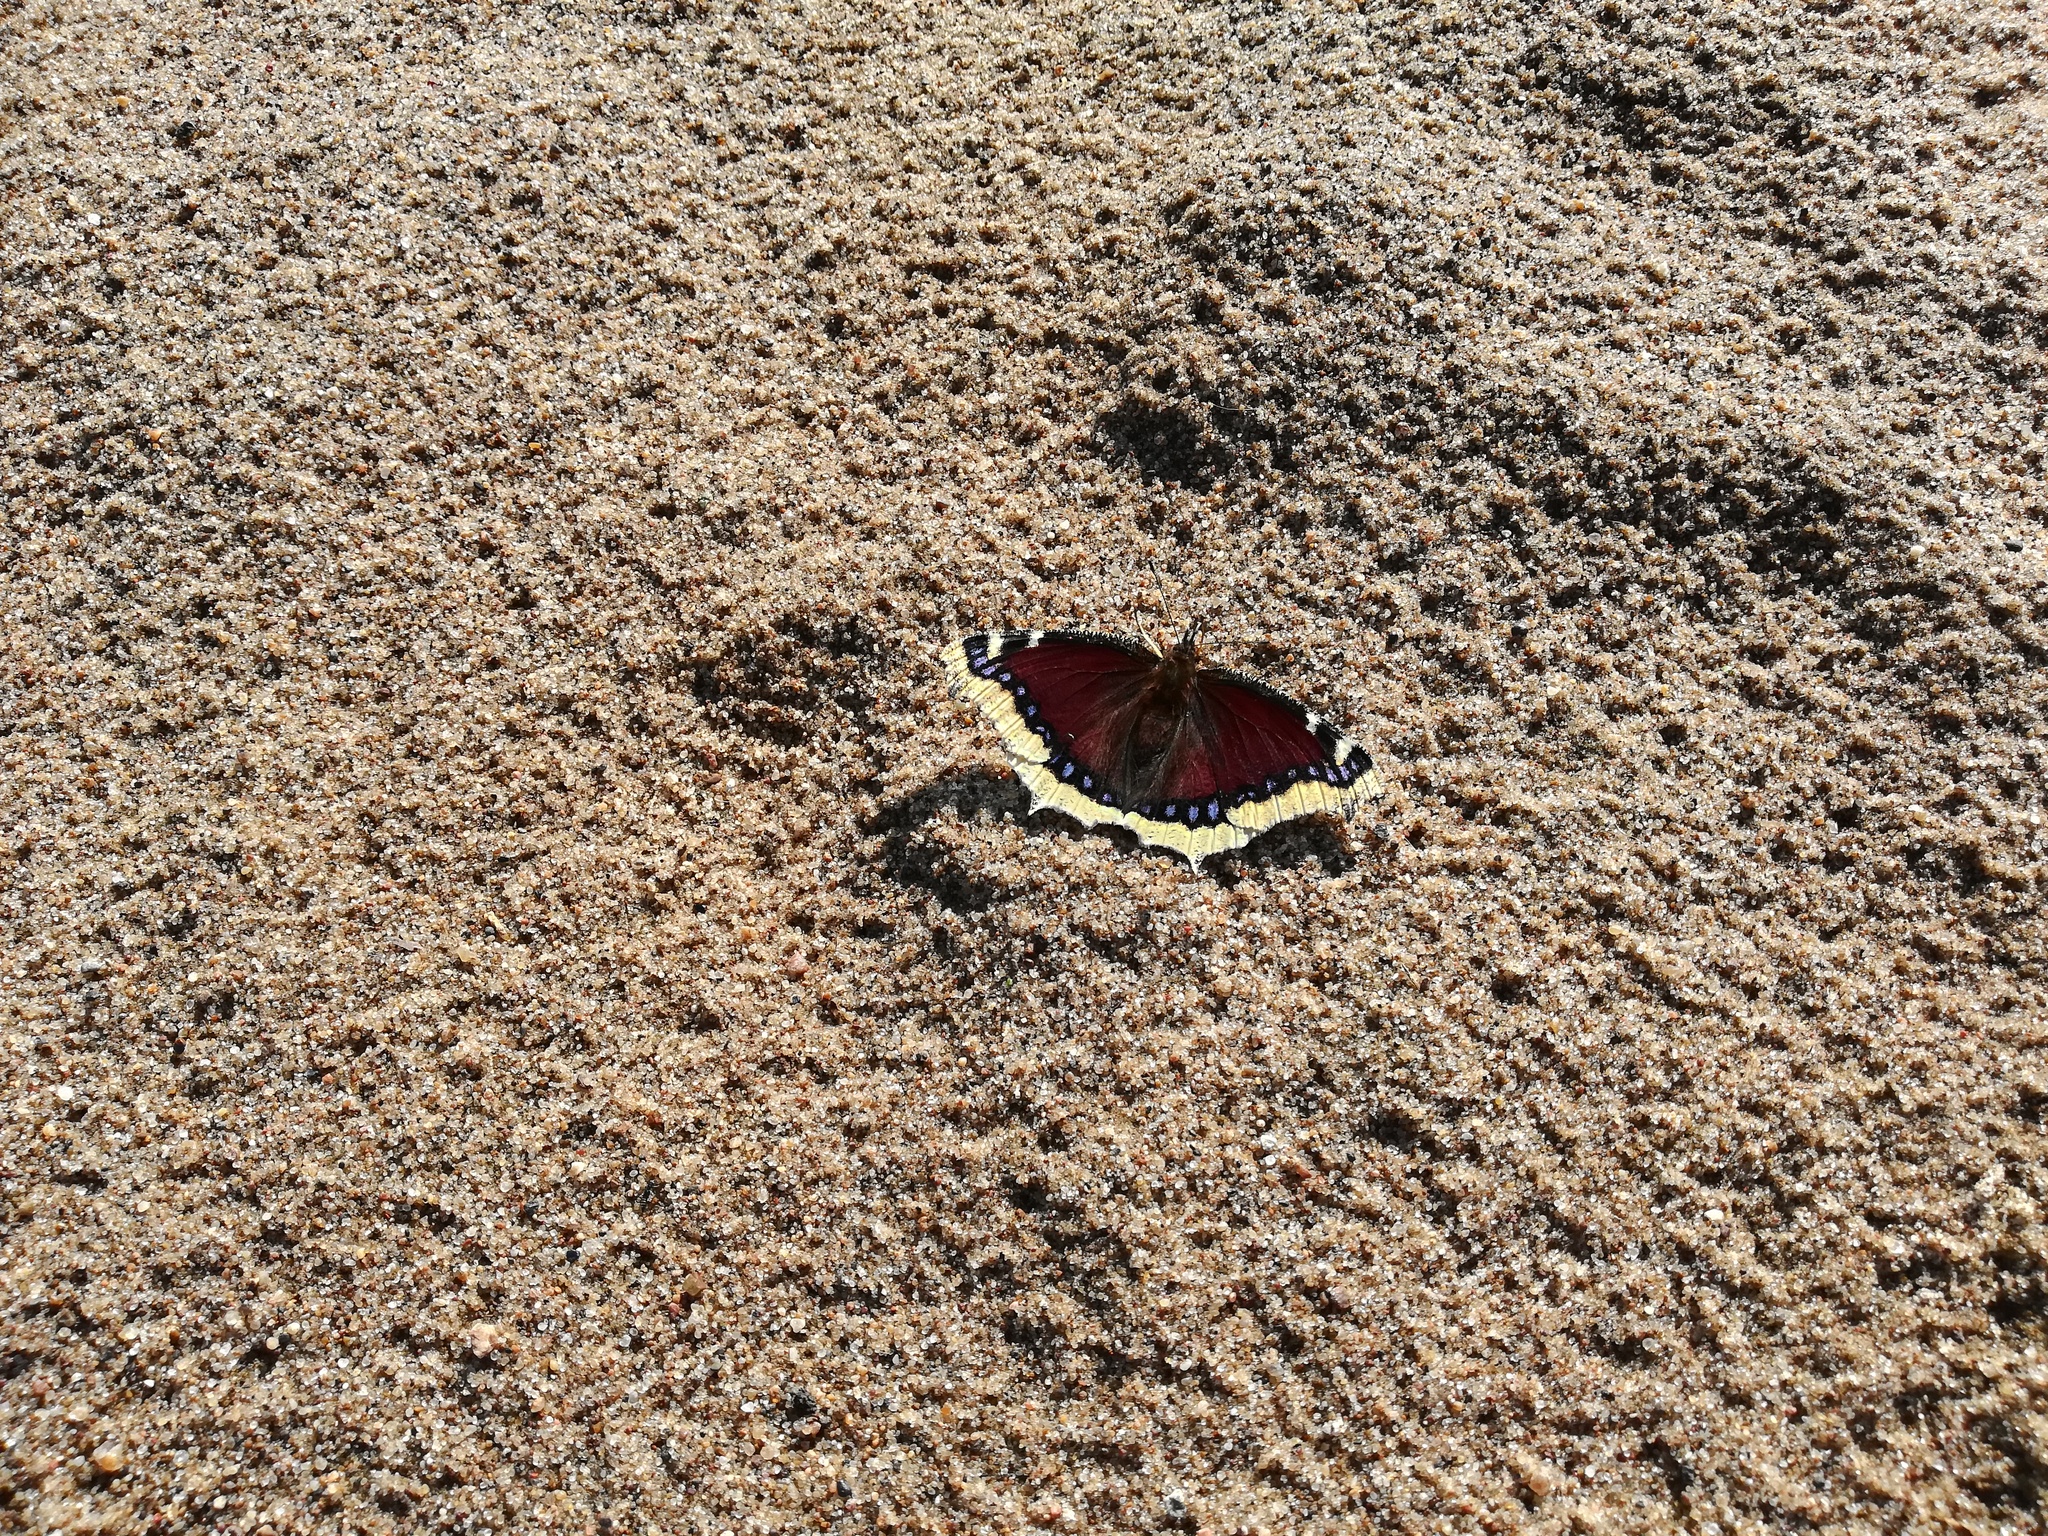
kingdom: Animalia
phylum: Arthropoda
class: Insecta
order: Lepidoptera
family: Nymphalidae
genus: Nymphalis
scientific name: Nymphalis antiopa
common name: Camberwell beauty
